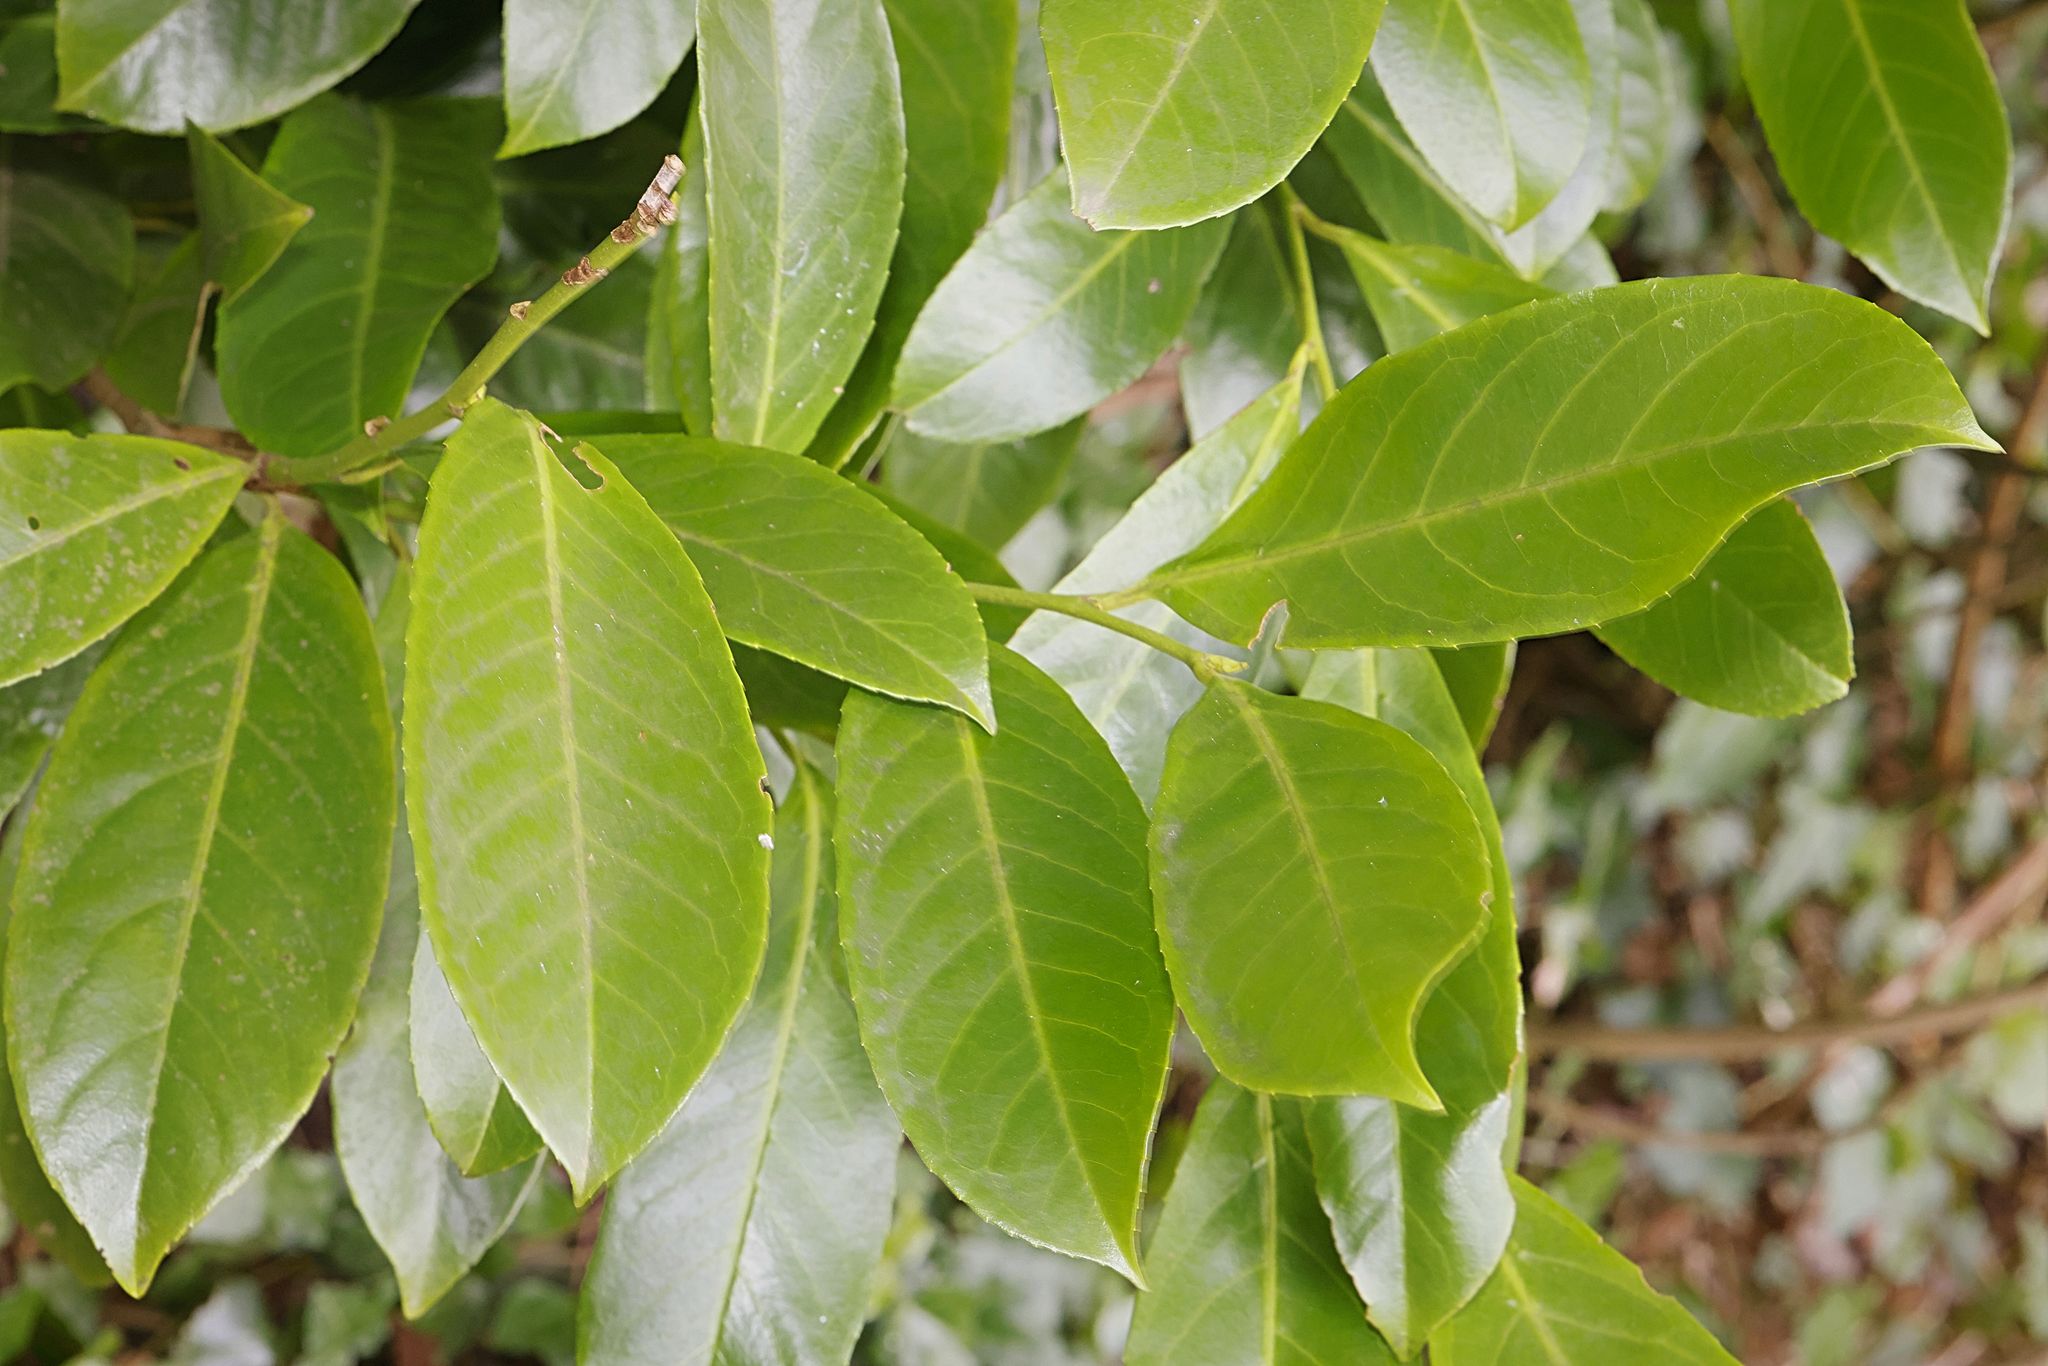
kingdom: Plantae
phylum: Tracheophyta
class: Magnoliopsida
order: Rosales
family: Rosaceae
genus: Prunus
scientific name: Prunus laurocerasus
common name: Cherry laurel
